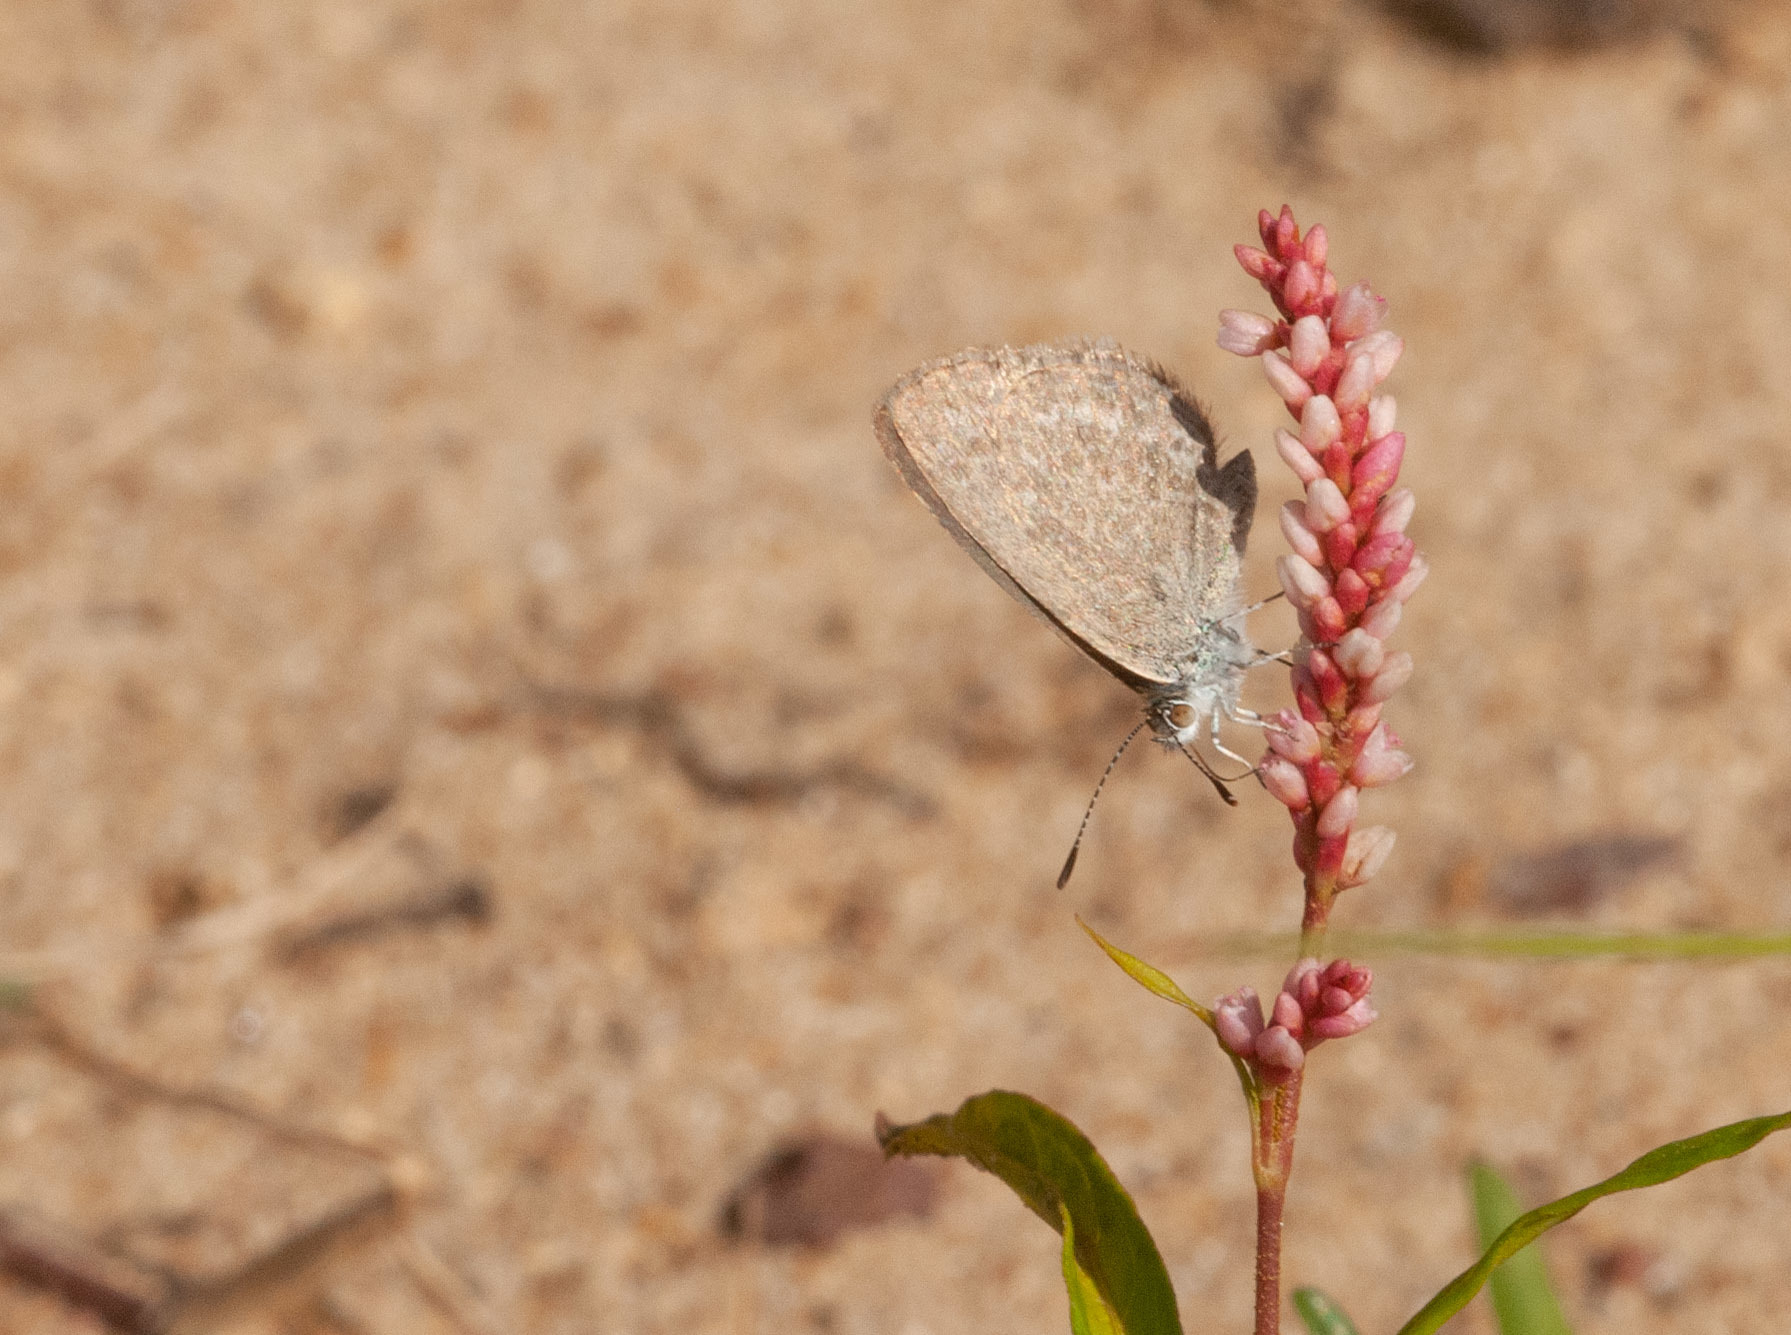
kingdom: Animalia
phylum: Arthropoda
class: Insecta
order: Lepidoptera
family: Lycaenidae
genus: Zizina
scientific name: Zizina labradus
